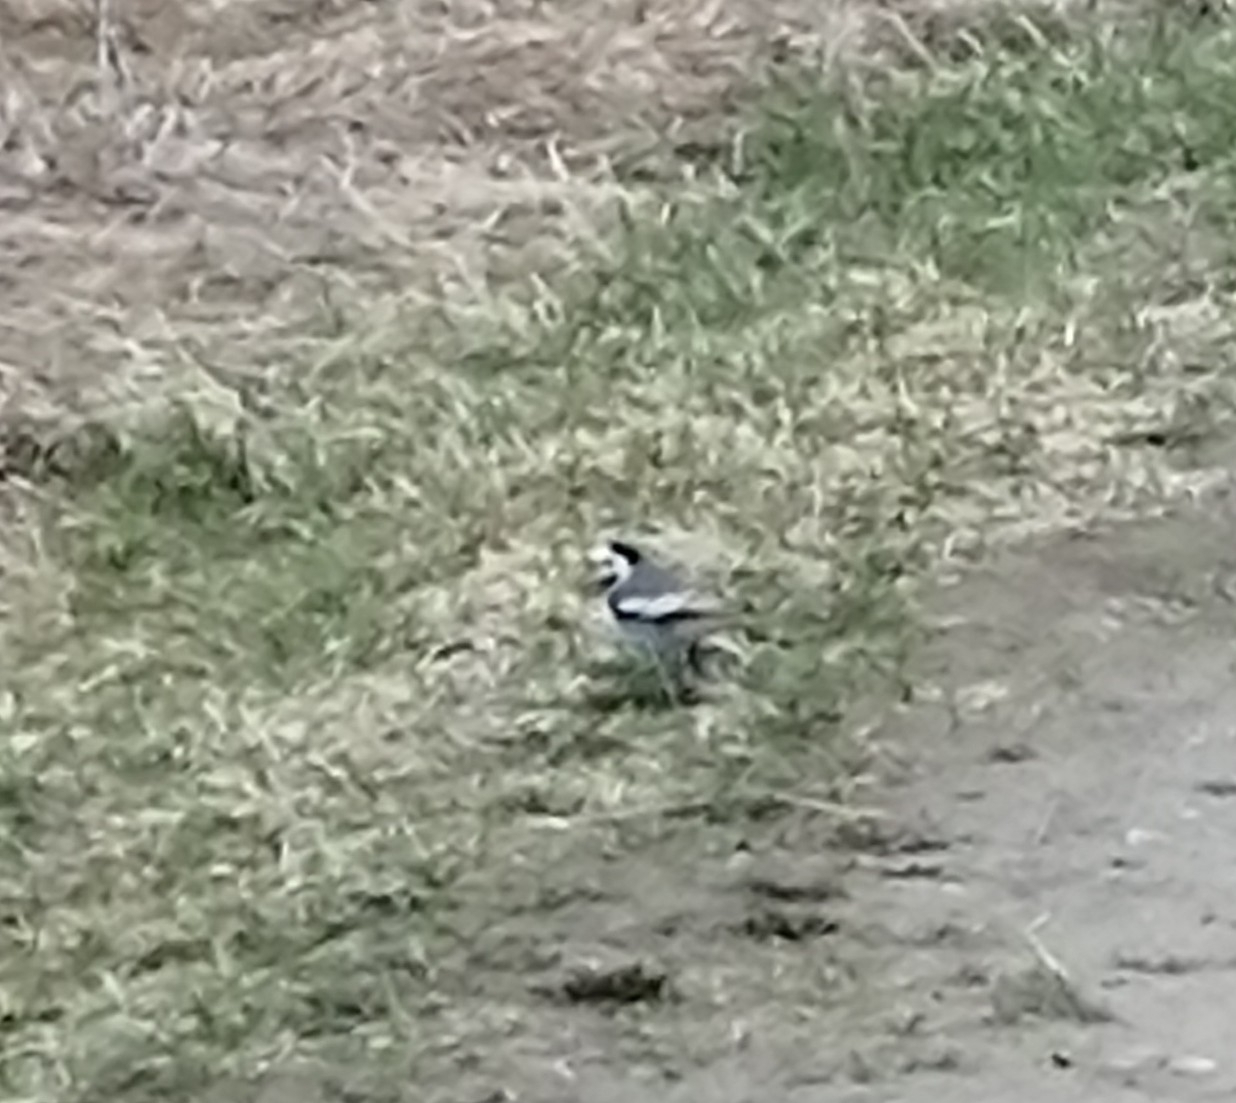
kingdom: Animalia
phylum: Chordata
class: Aves
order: Passeriformes
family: Motacillidae
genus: Motacilla
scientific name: Motacilla alba
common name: White wagtail
